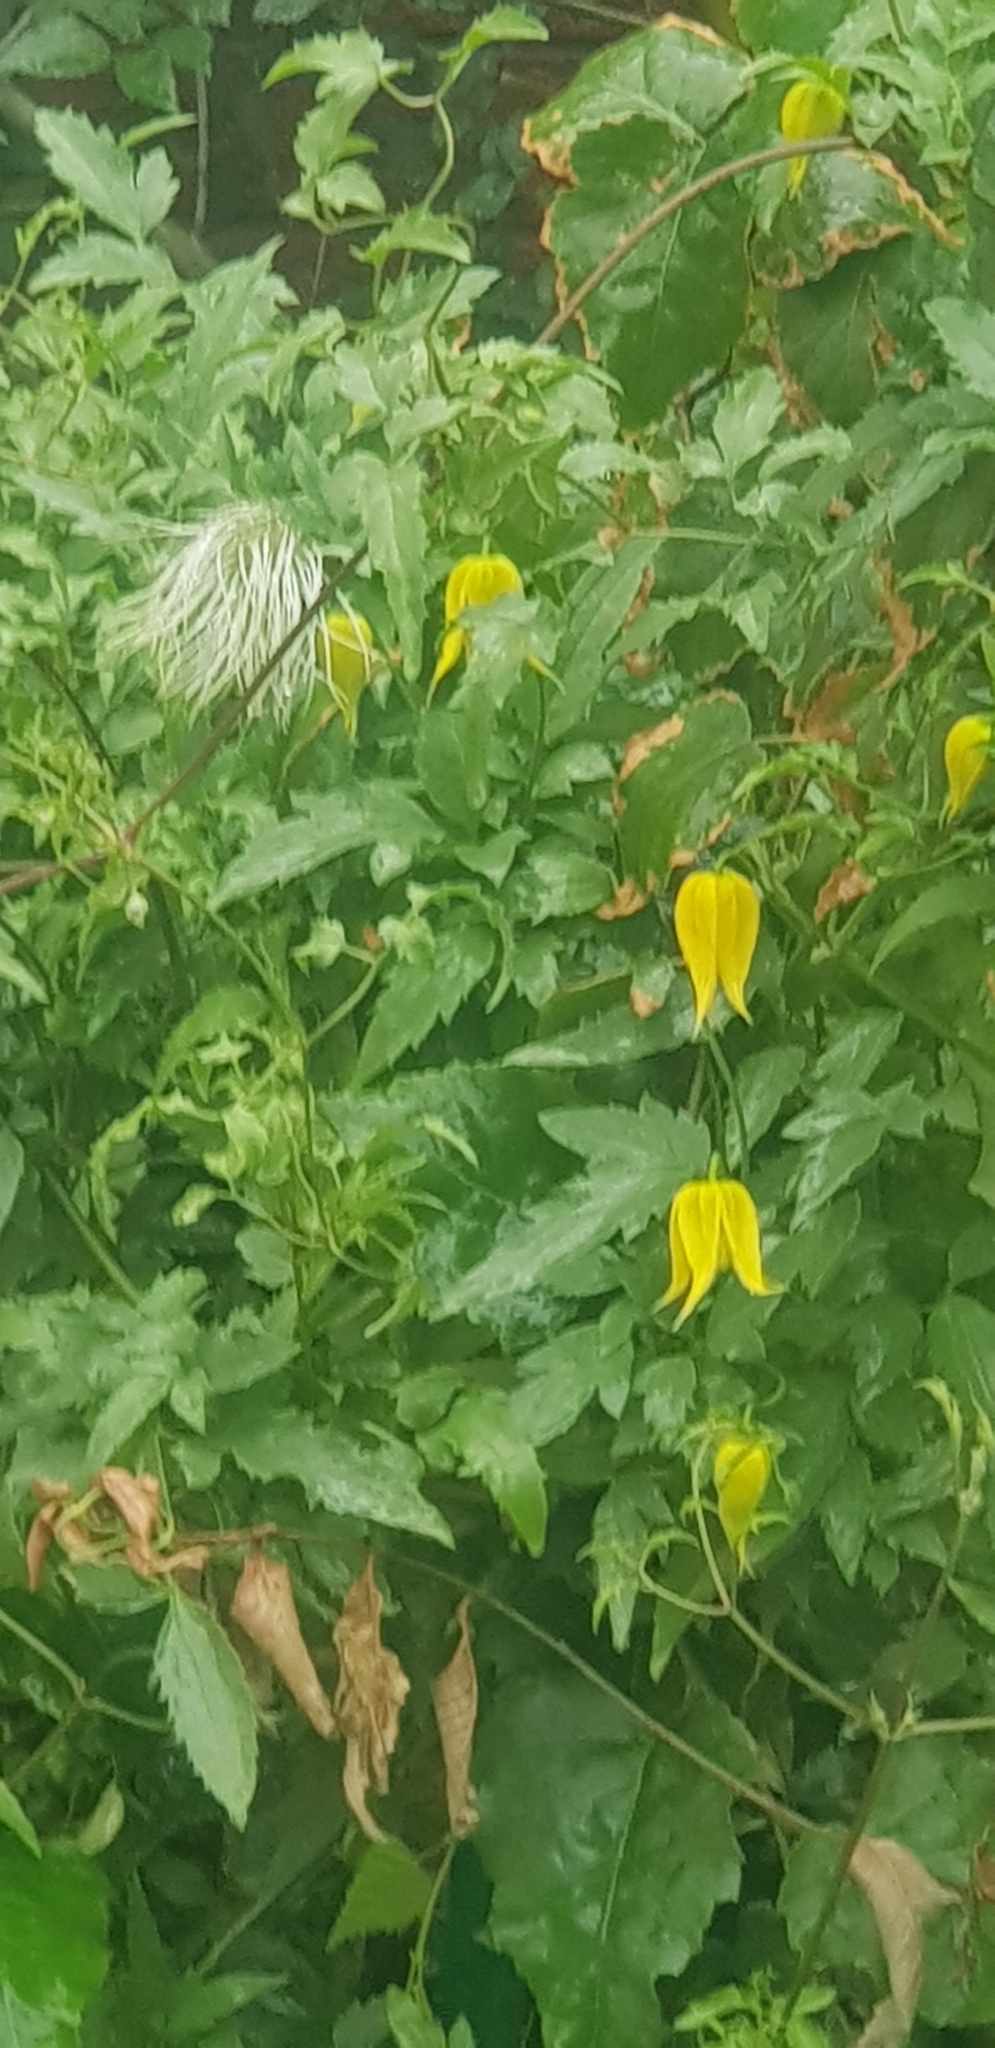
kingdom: Plantae
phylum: Tracheophyta
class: Magnoliopsida
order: Ranunculales
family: Ranunculaceae
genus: Clematis
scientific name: Clematis tangutica
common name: Orange-peel clematis
